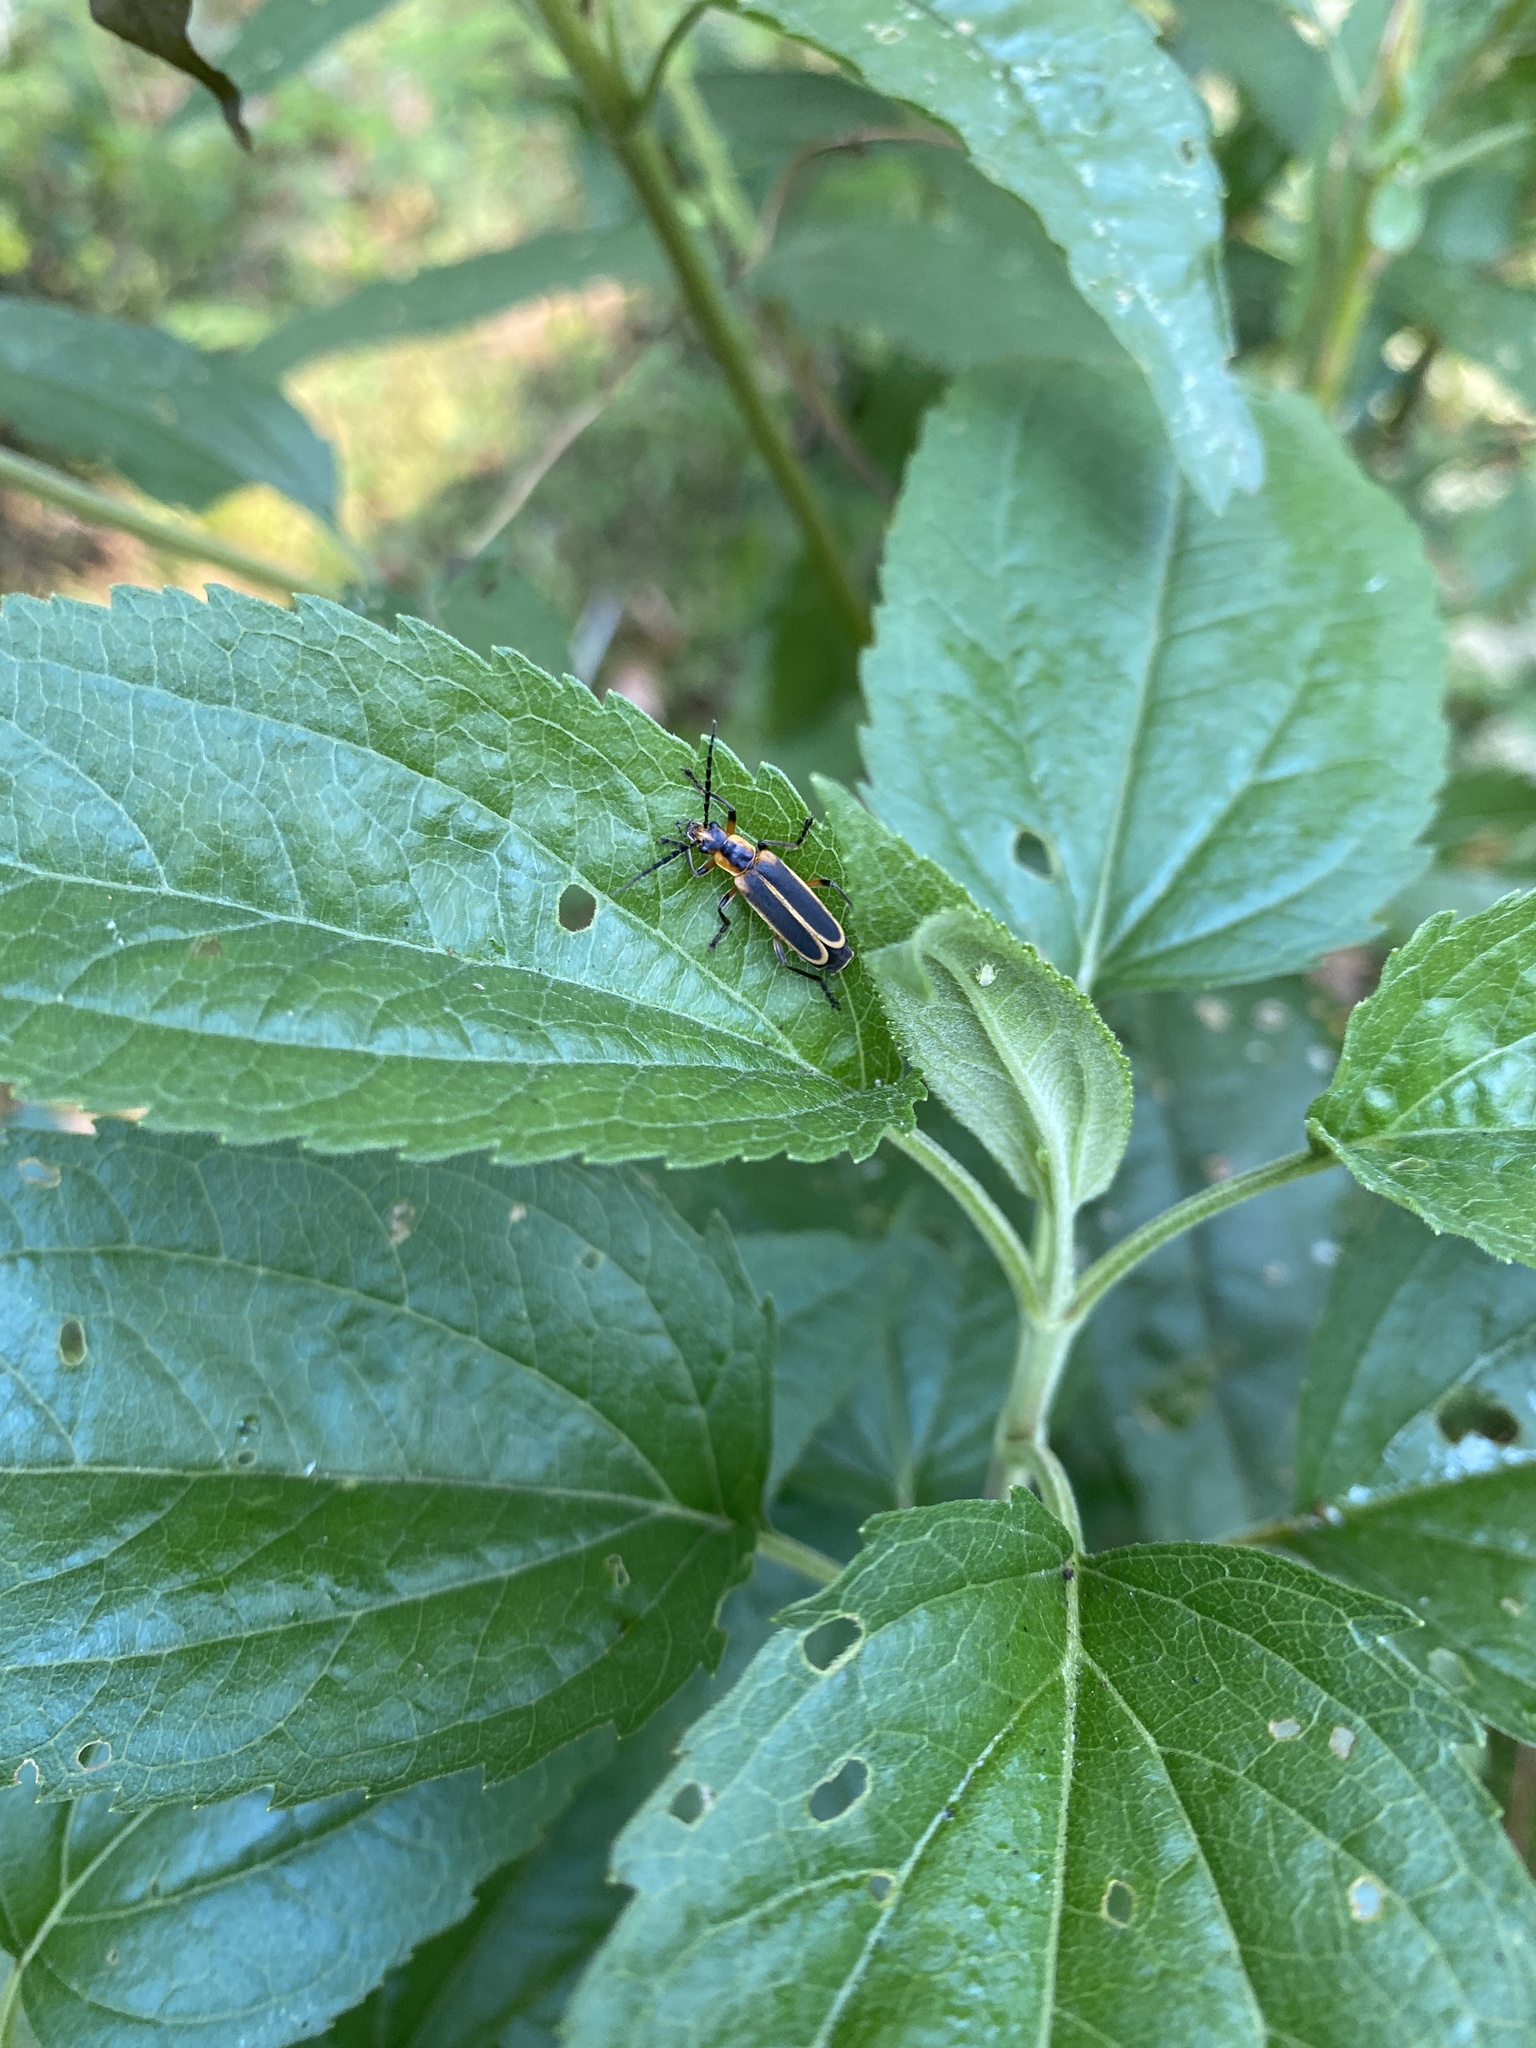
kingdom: Animalia
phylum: Arthropoda
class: Insecta
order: Coleoptera
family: Cantharidae
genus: Chauliognathus
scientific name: Chauliognathus marginatus
